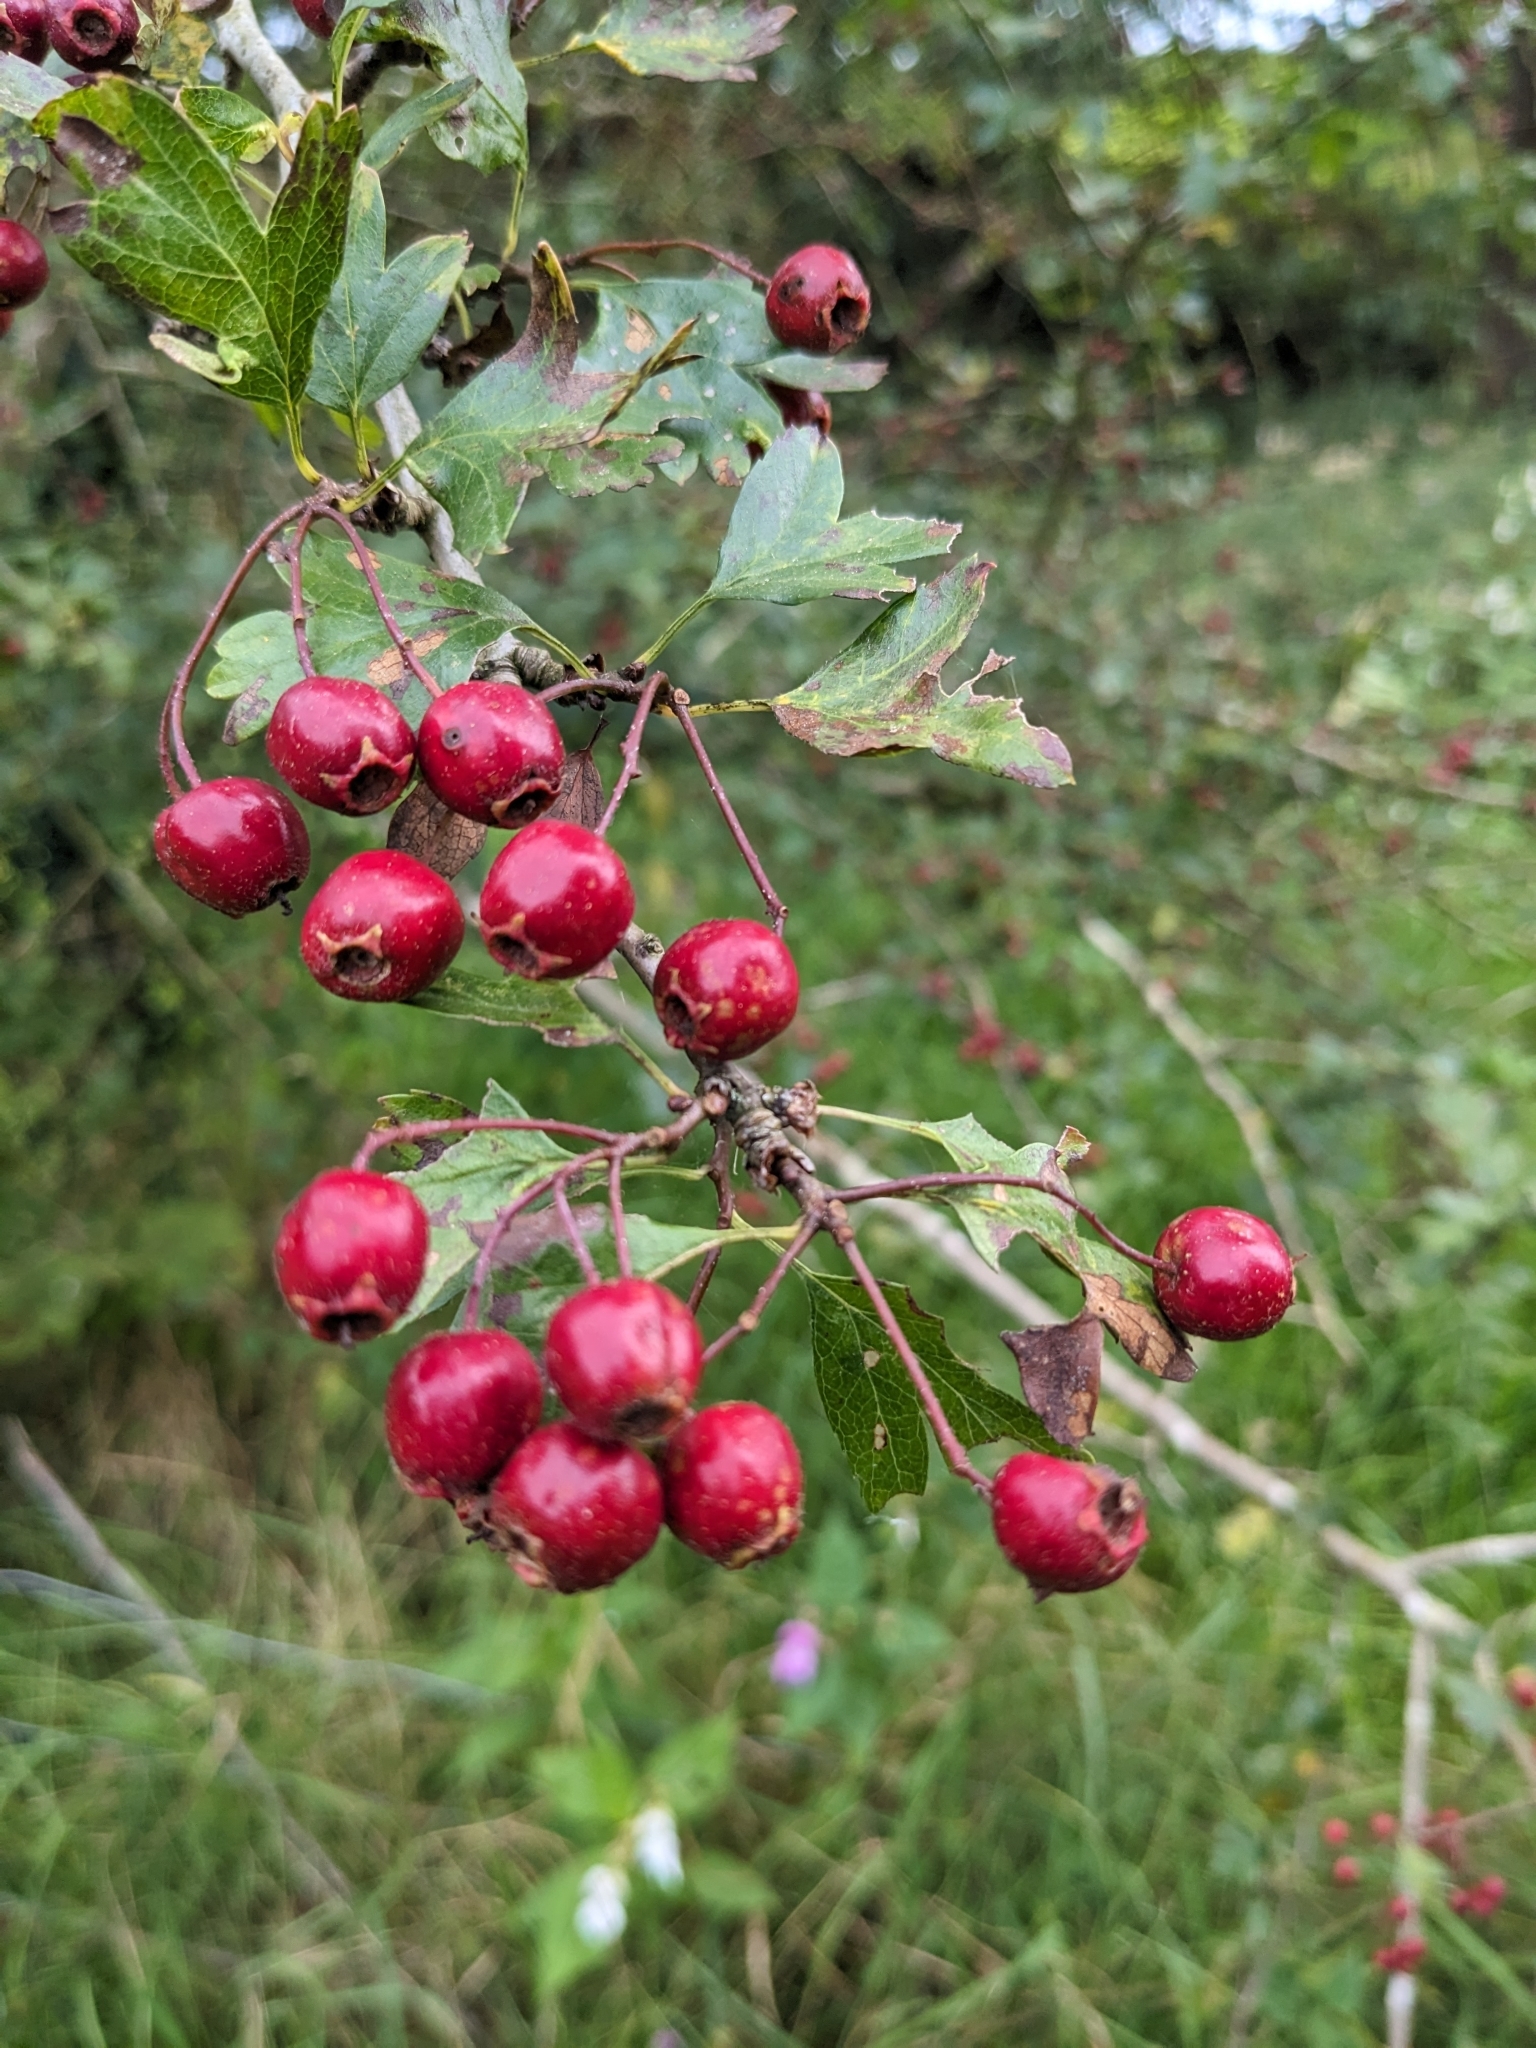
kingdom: Plantae
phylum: Tracheophyta
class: Magnoliopsida
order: Rosales
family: Rosaceae
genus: Crataegus
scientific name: Crataegus monogyna
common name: Hawthorn
